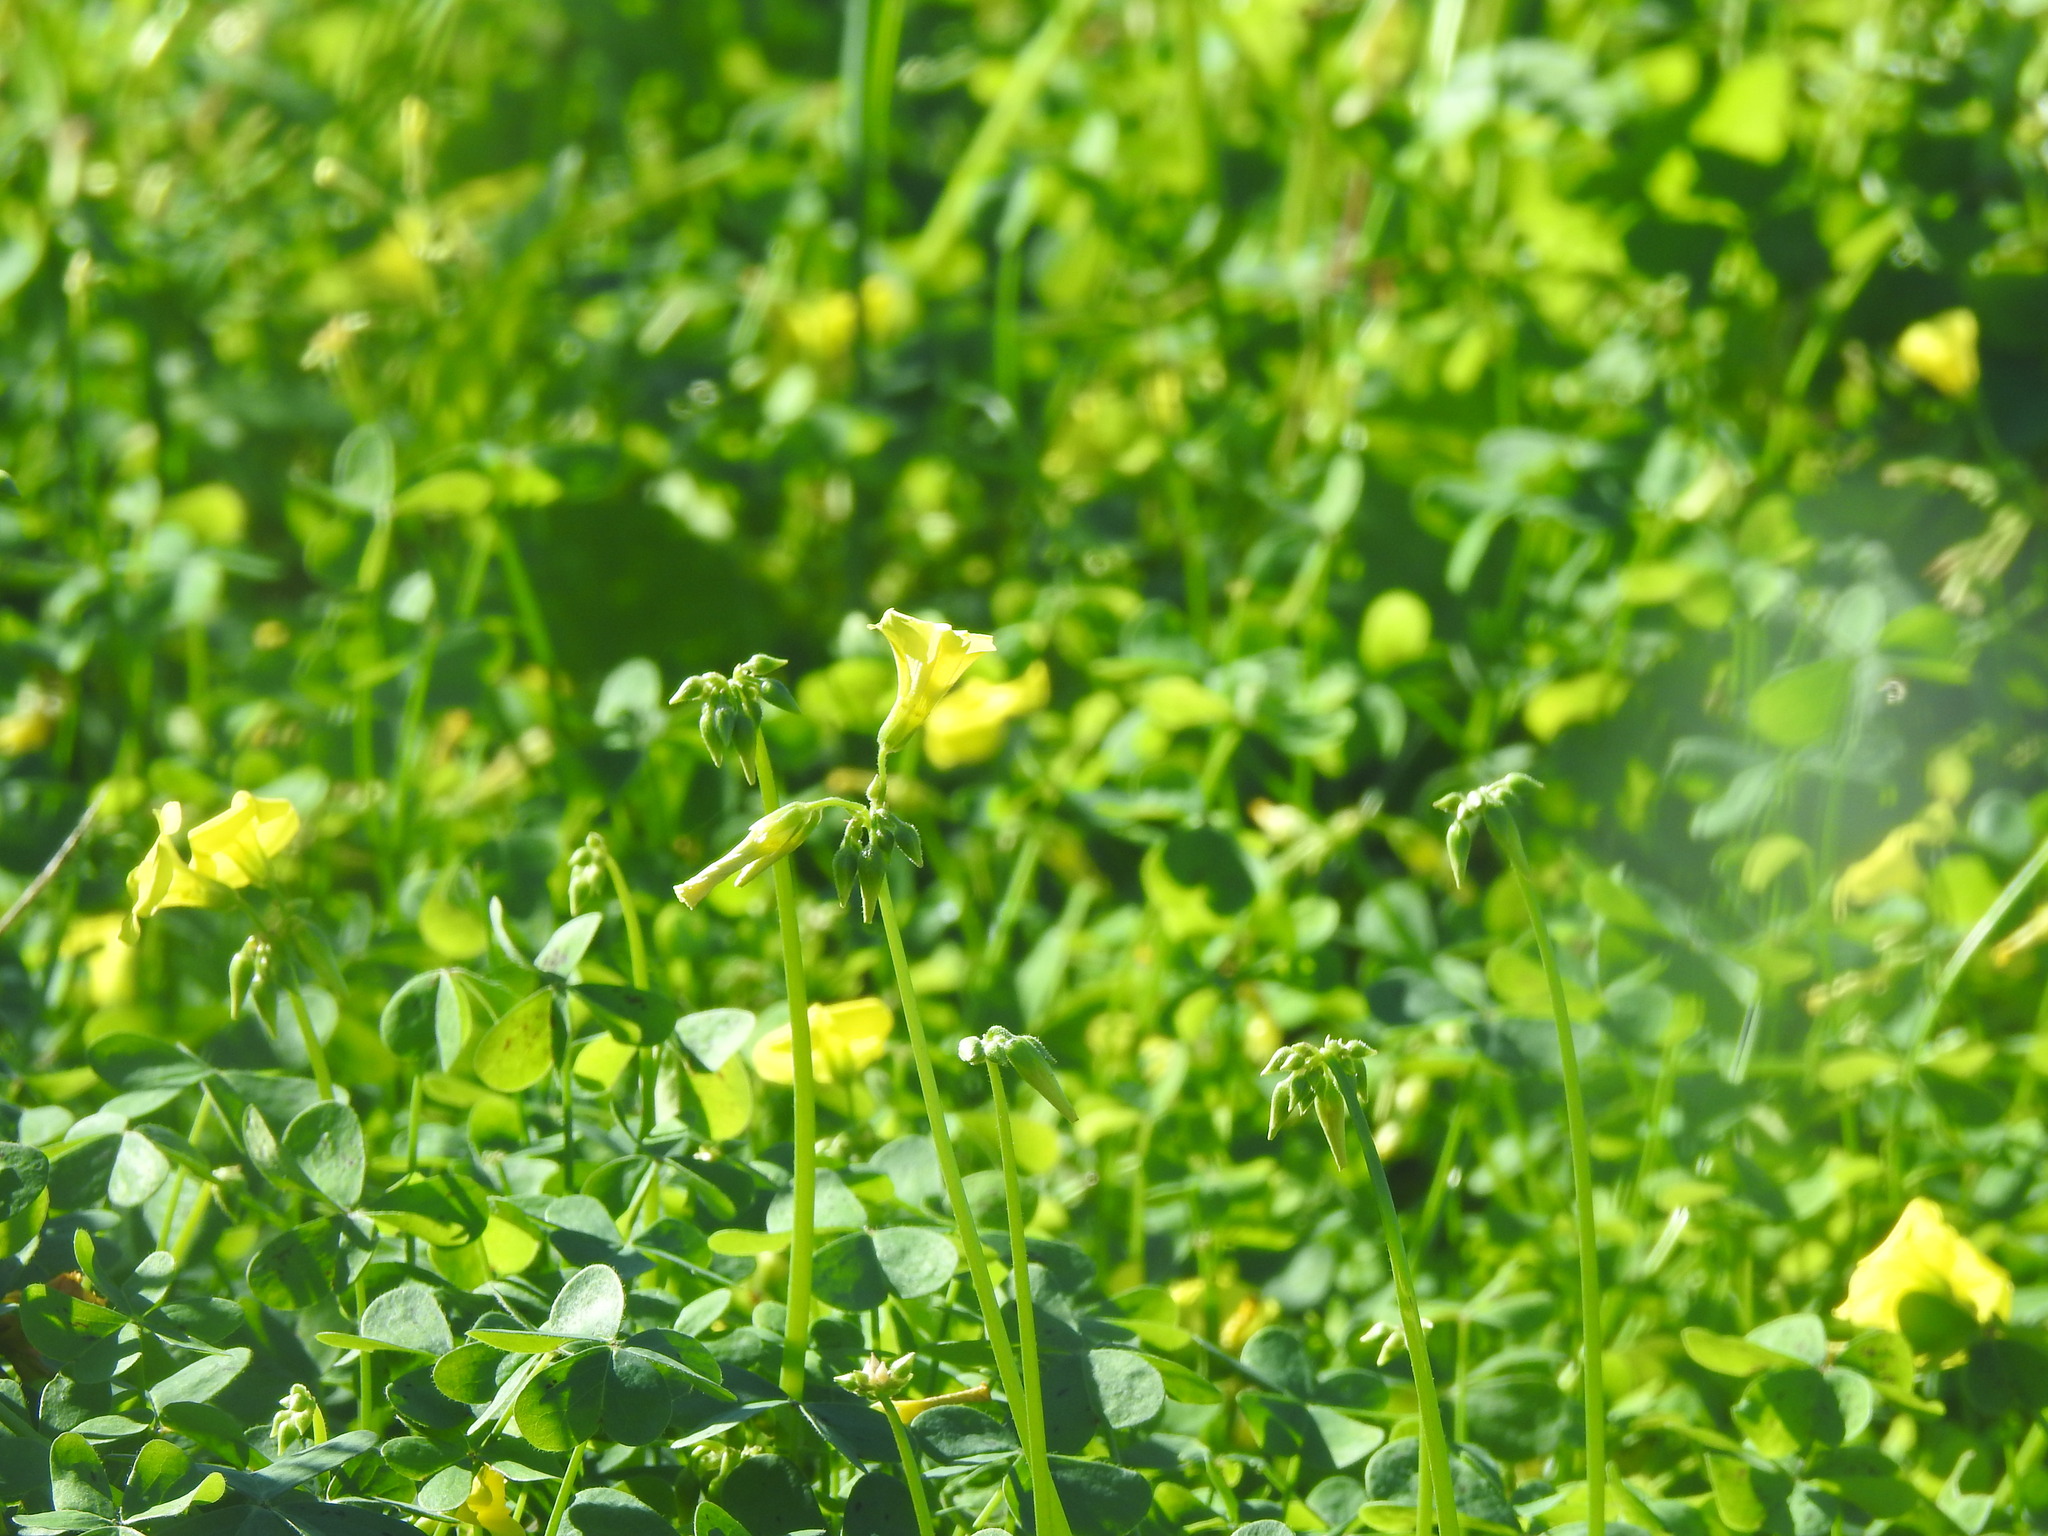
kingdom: Plantae
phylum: Tracheophyta
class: Magnoliopsida
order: Oxalidales
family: Oxalidaceae
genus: Oxalis
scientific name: Oxalis pes-caprae
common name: Bermuda-buttercup
